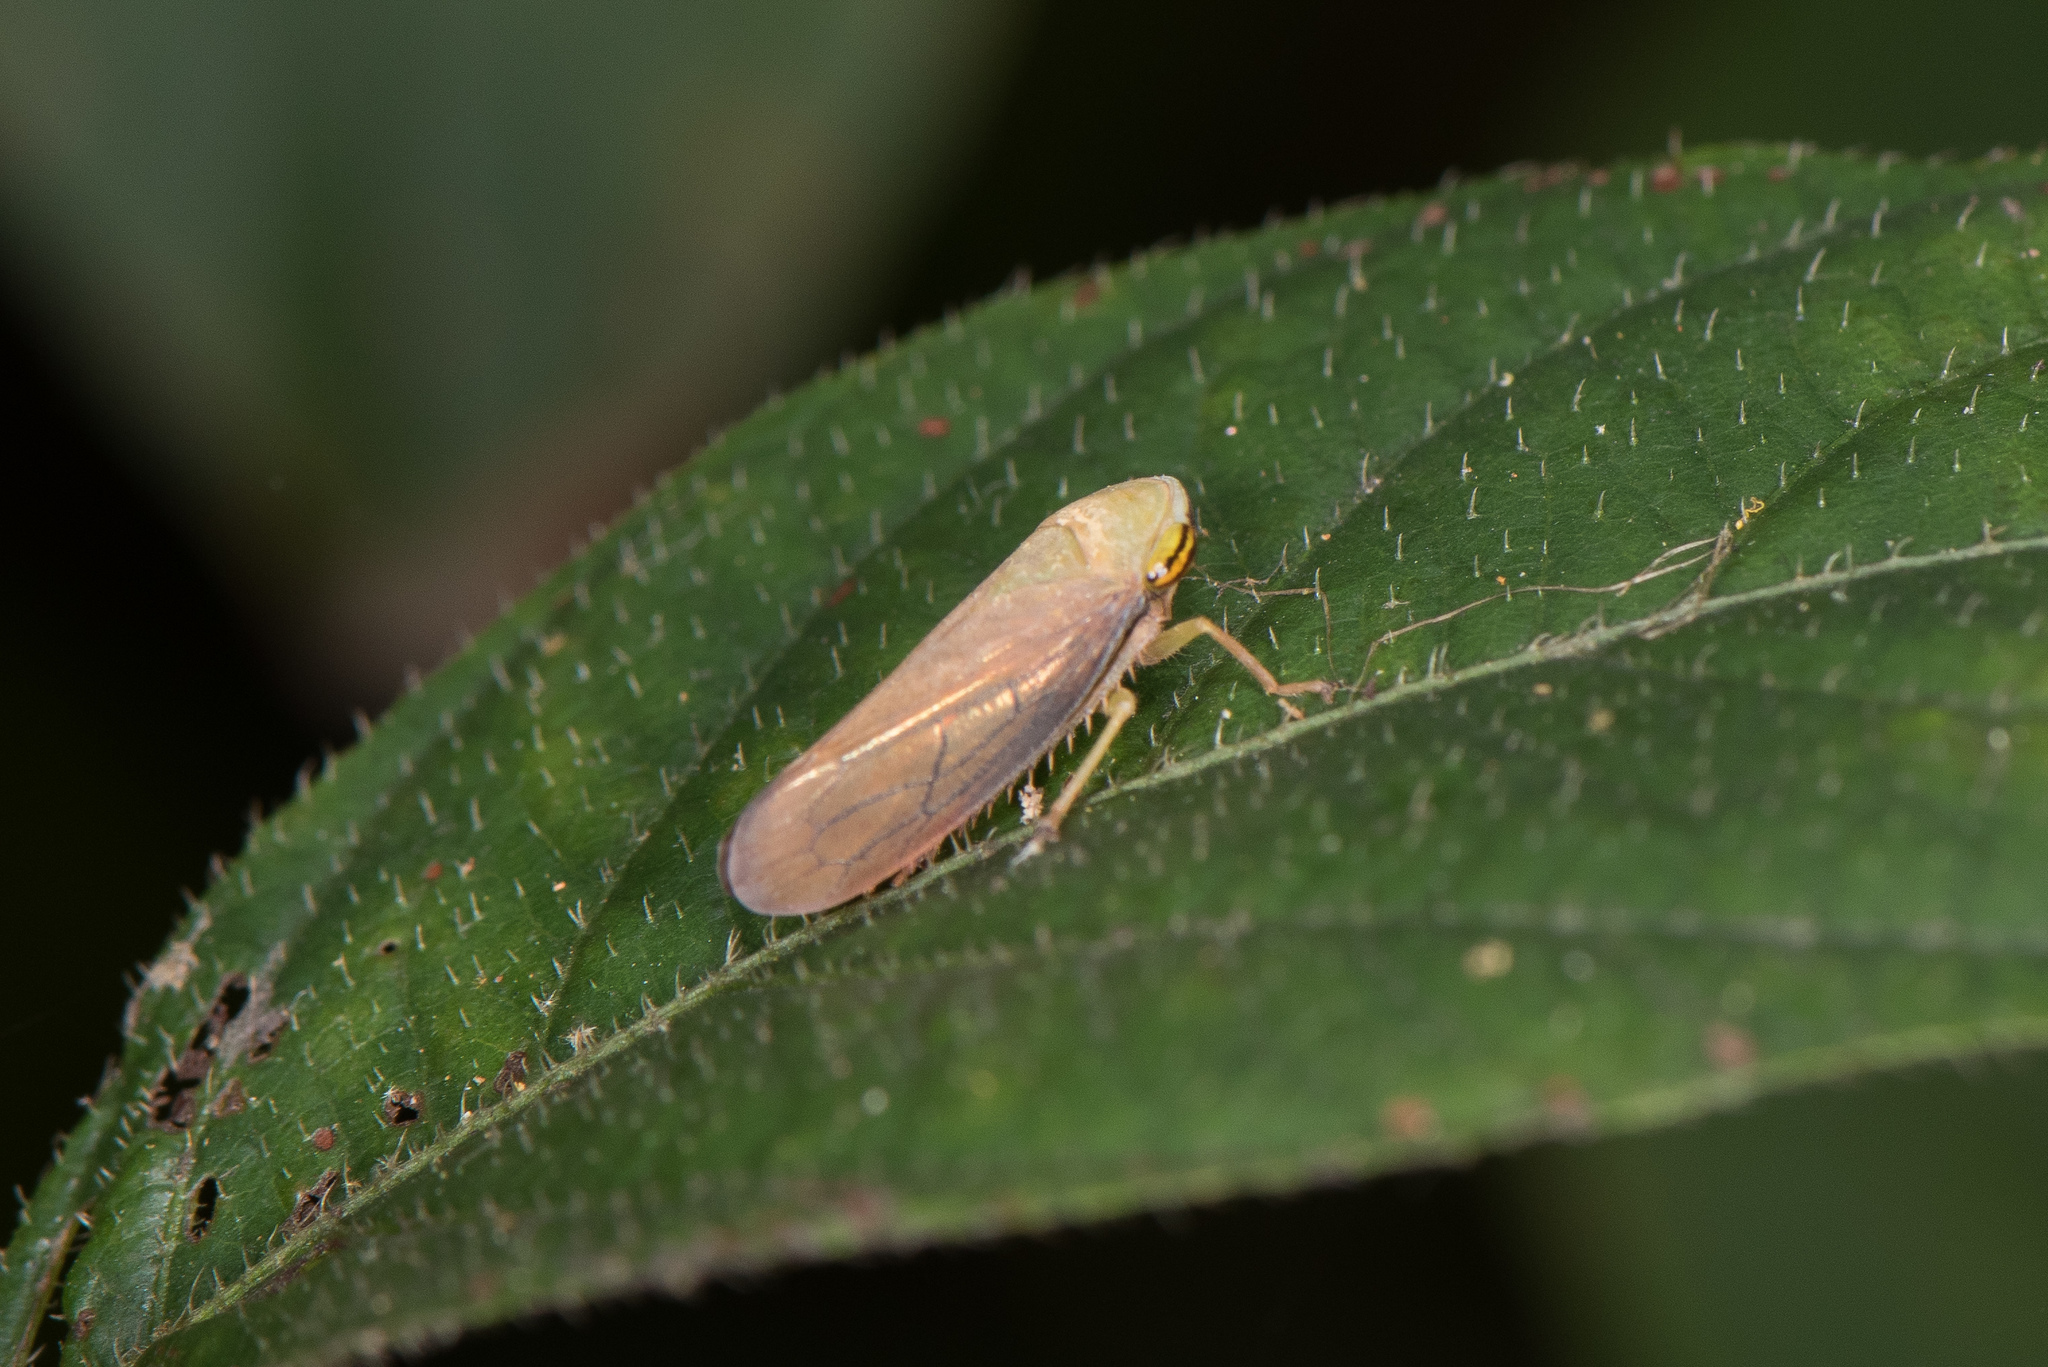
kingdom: Animalia
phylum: Arthropoda
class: Insecta
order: Hemiptera
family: Cicadellidae
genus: Tartessus
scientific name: Tartessus ferrugineus
